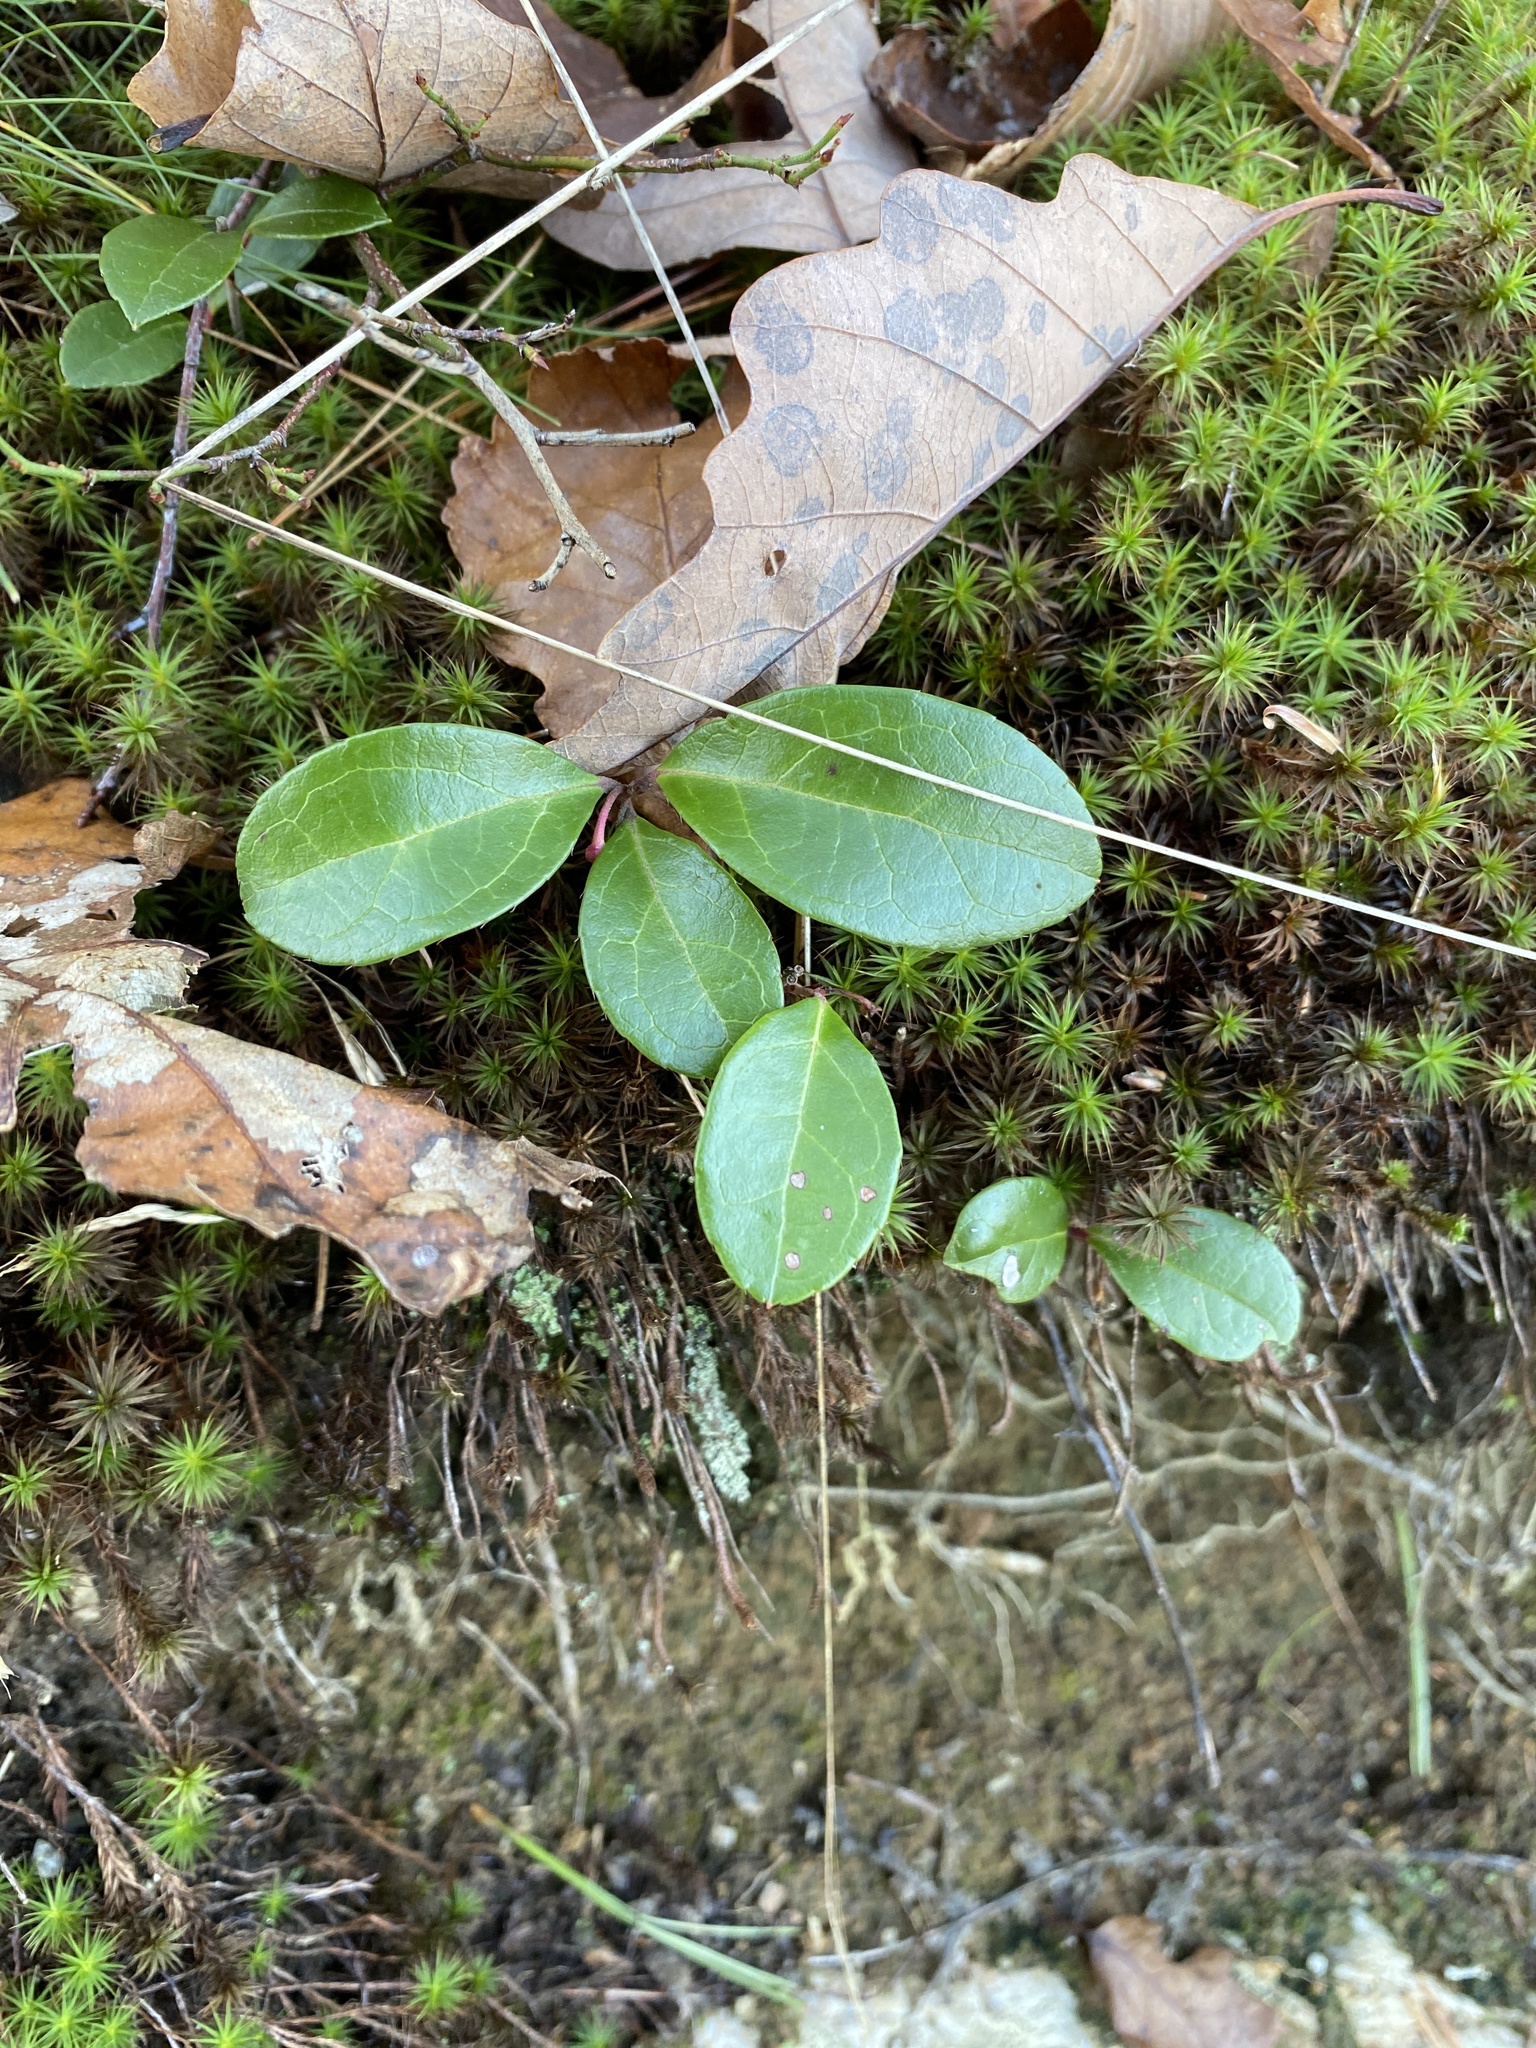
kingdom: Plantae
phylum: Tracheophyta
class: Magnoliopsida
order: Ericales
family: Ericaceae
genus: Gaultheria
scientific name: Gaultheria procumbens
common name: Checkerberry
